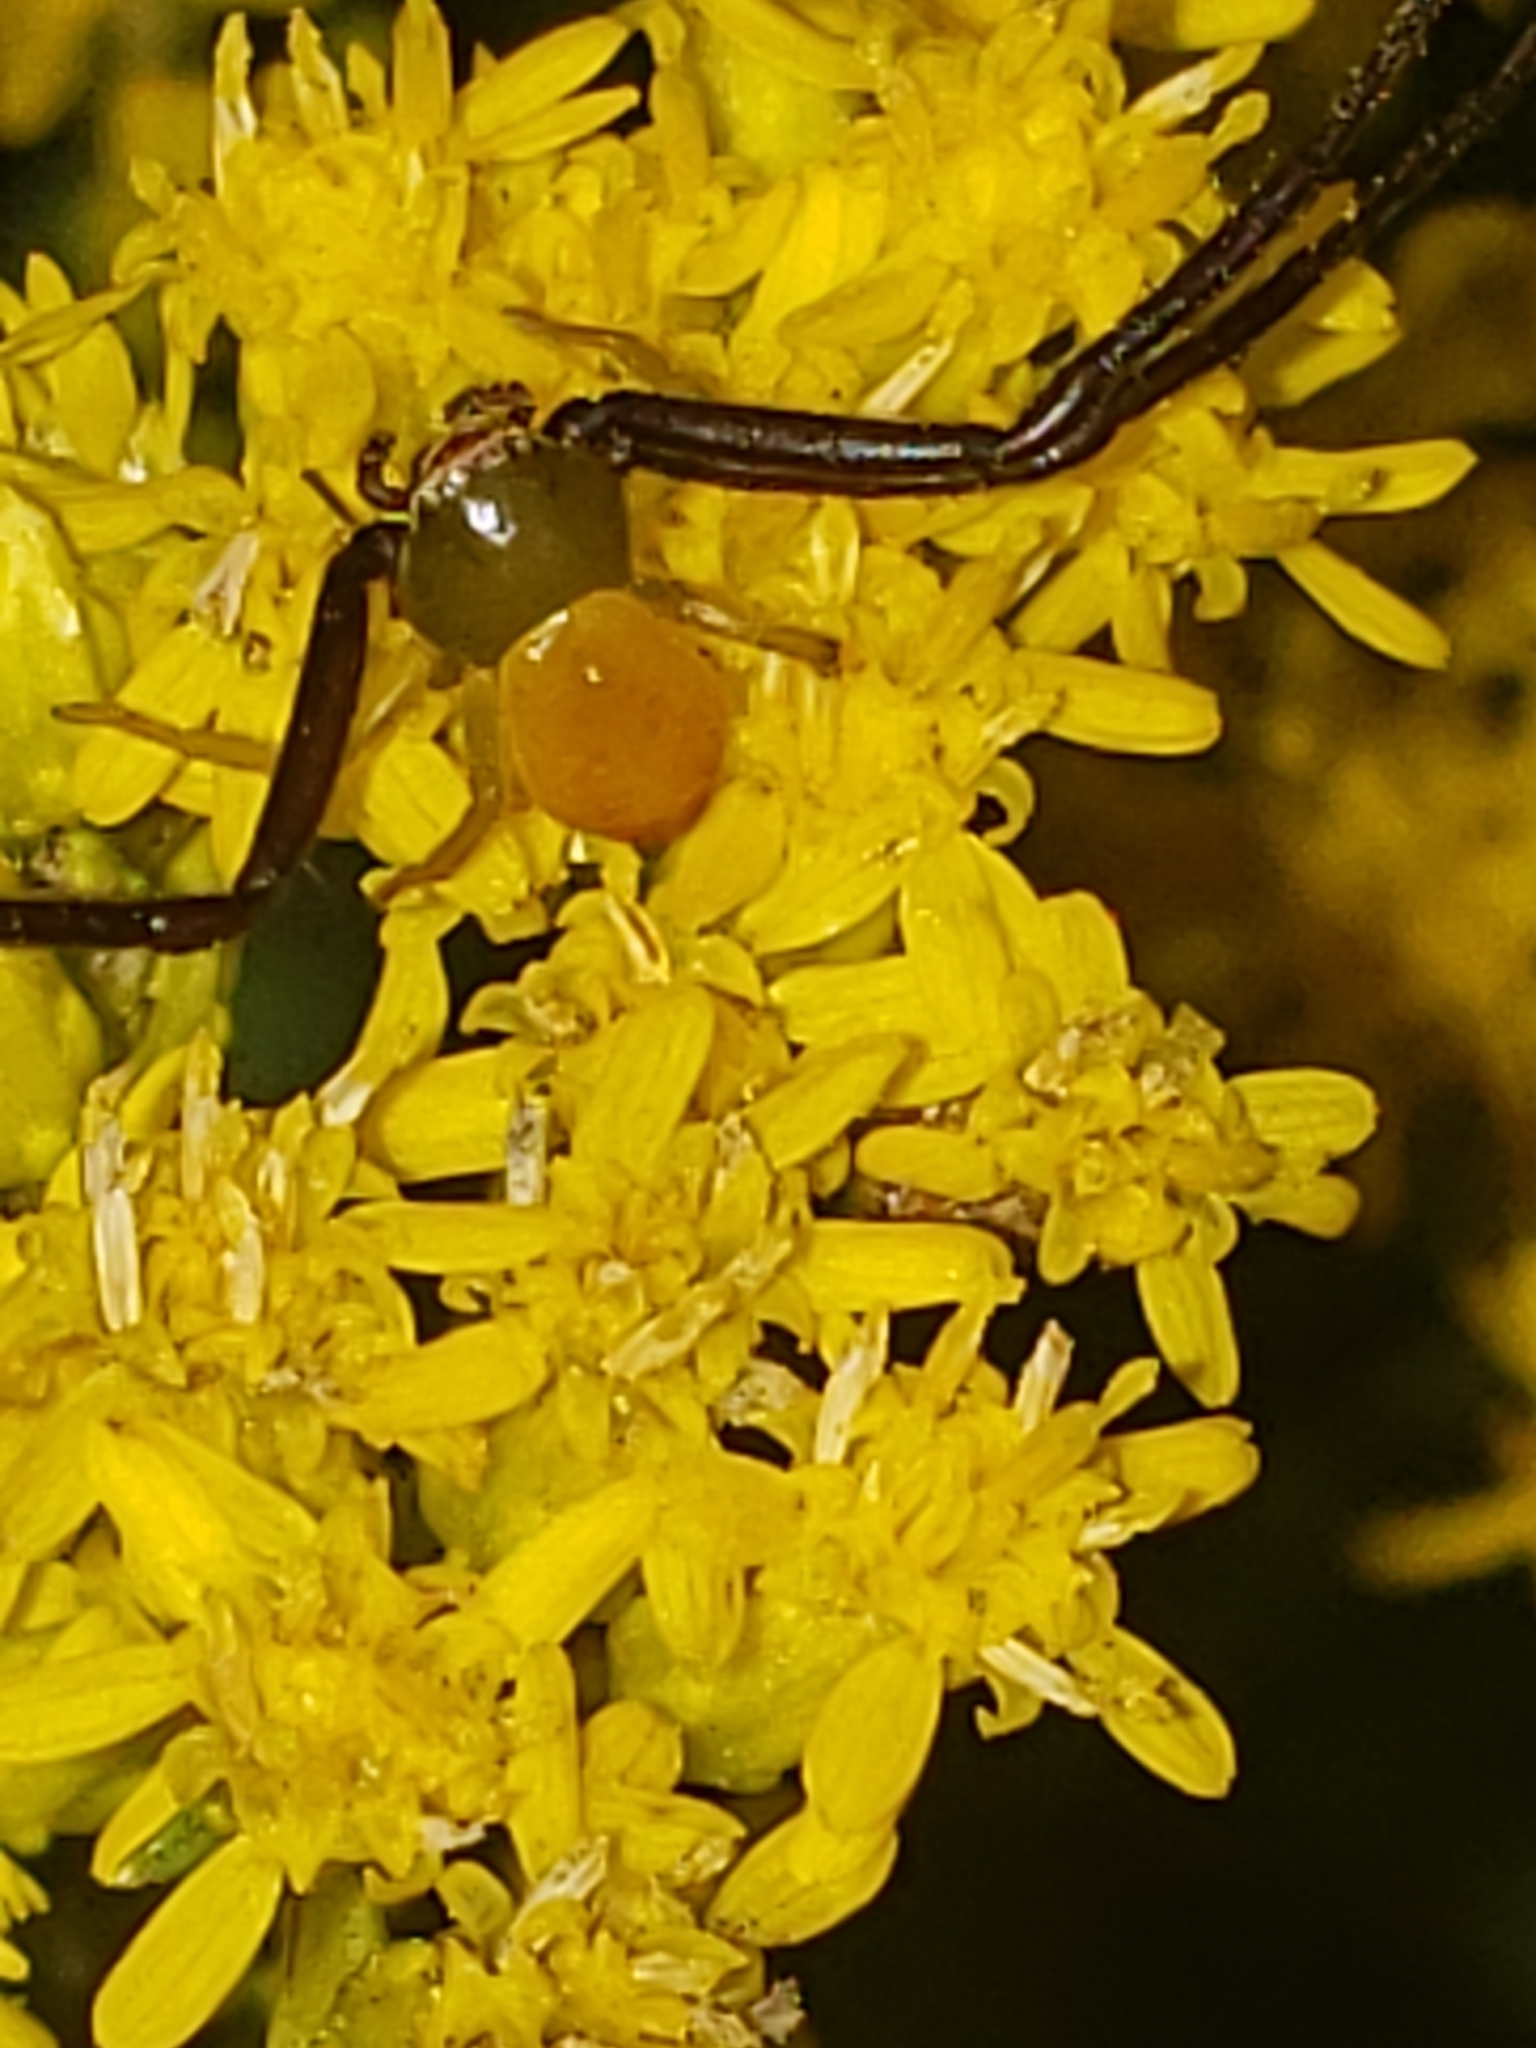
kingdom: Animalia
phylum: Arthropoda
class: Arachnida
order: Araneae
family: Thomisidae
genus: Misumenoides
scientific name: Misumenoides formosipes
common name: White-banded crab spider
